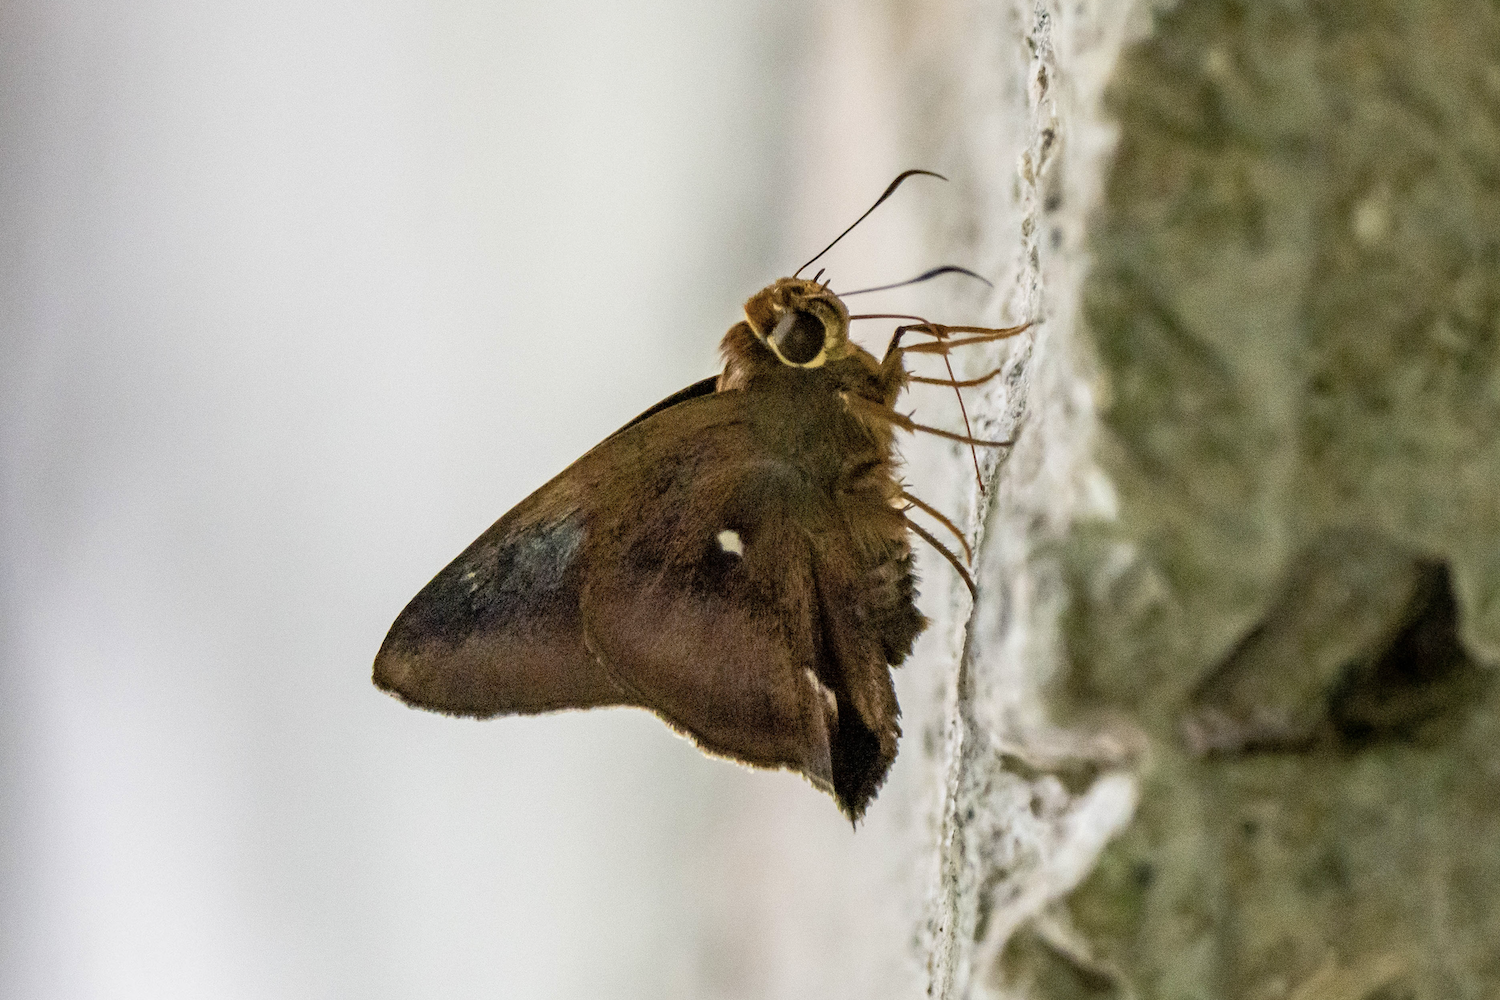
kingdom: Animalia
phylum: Arthropoda
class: Insecta
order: Lepidoptera
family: Hesperiidae
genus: Hasora
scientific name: Hasora badra
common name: Common awl
